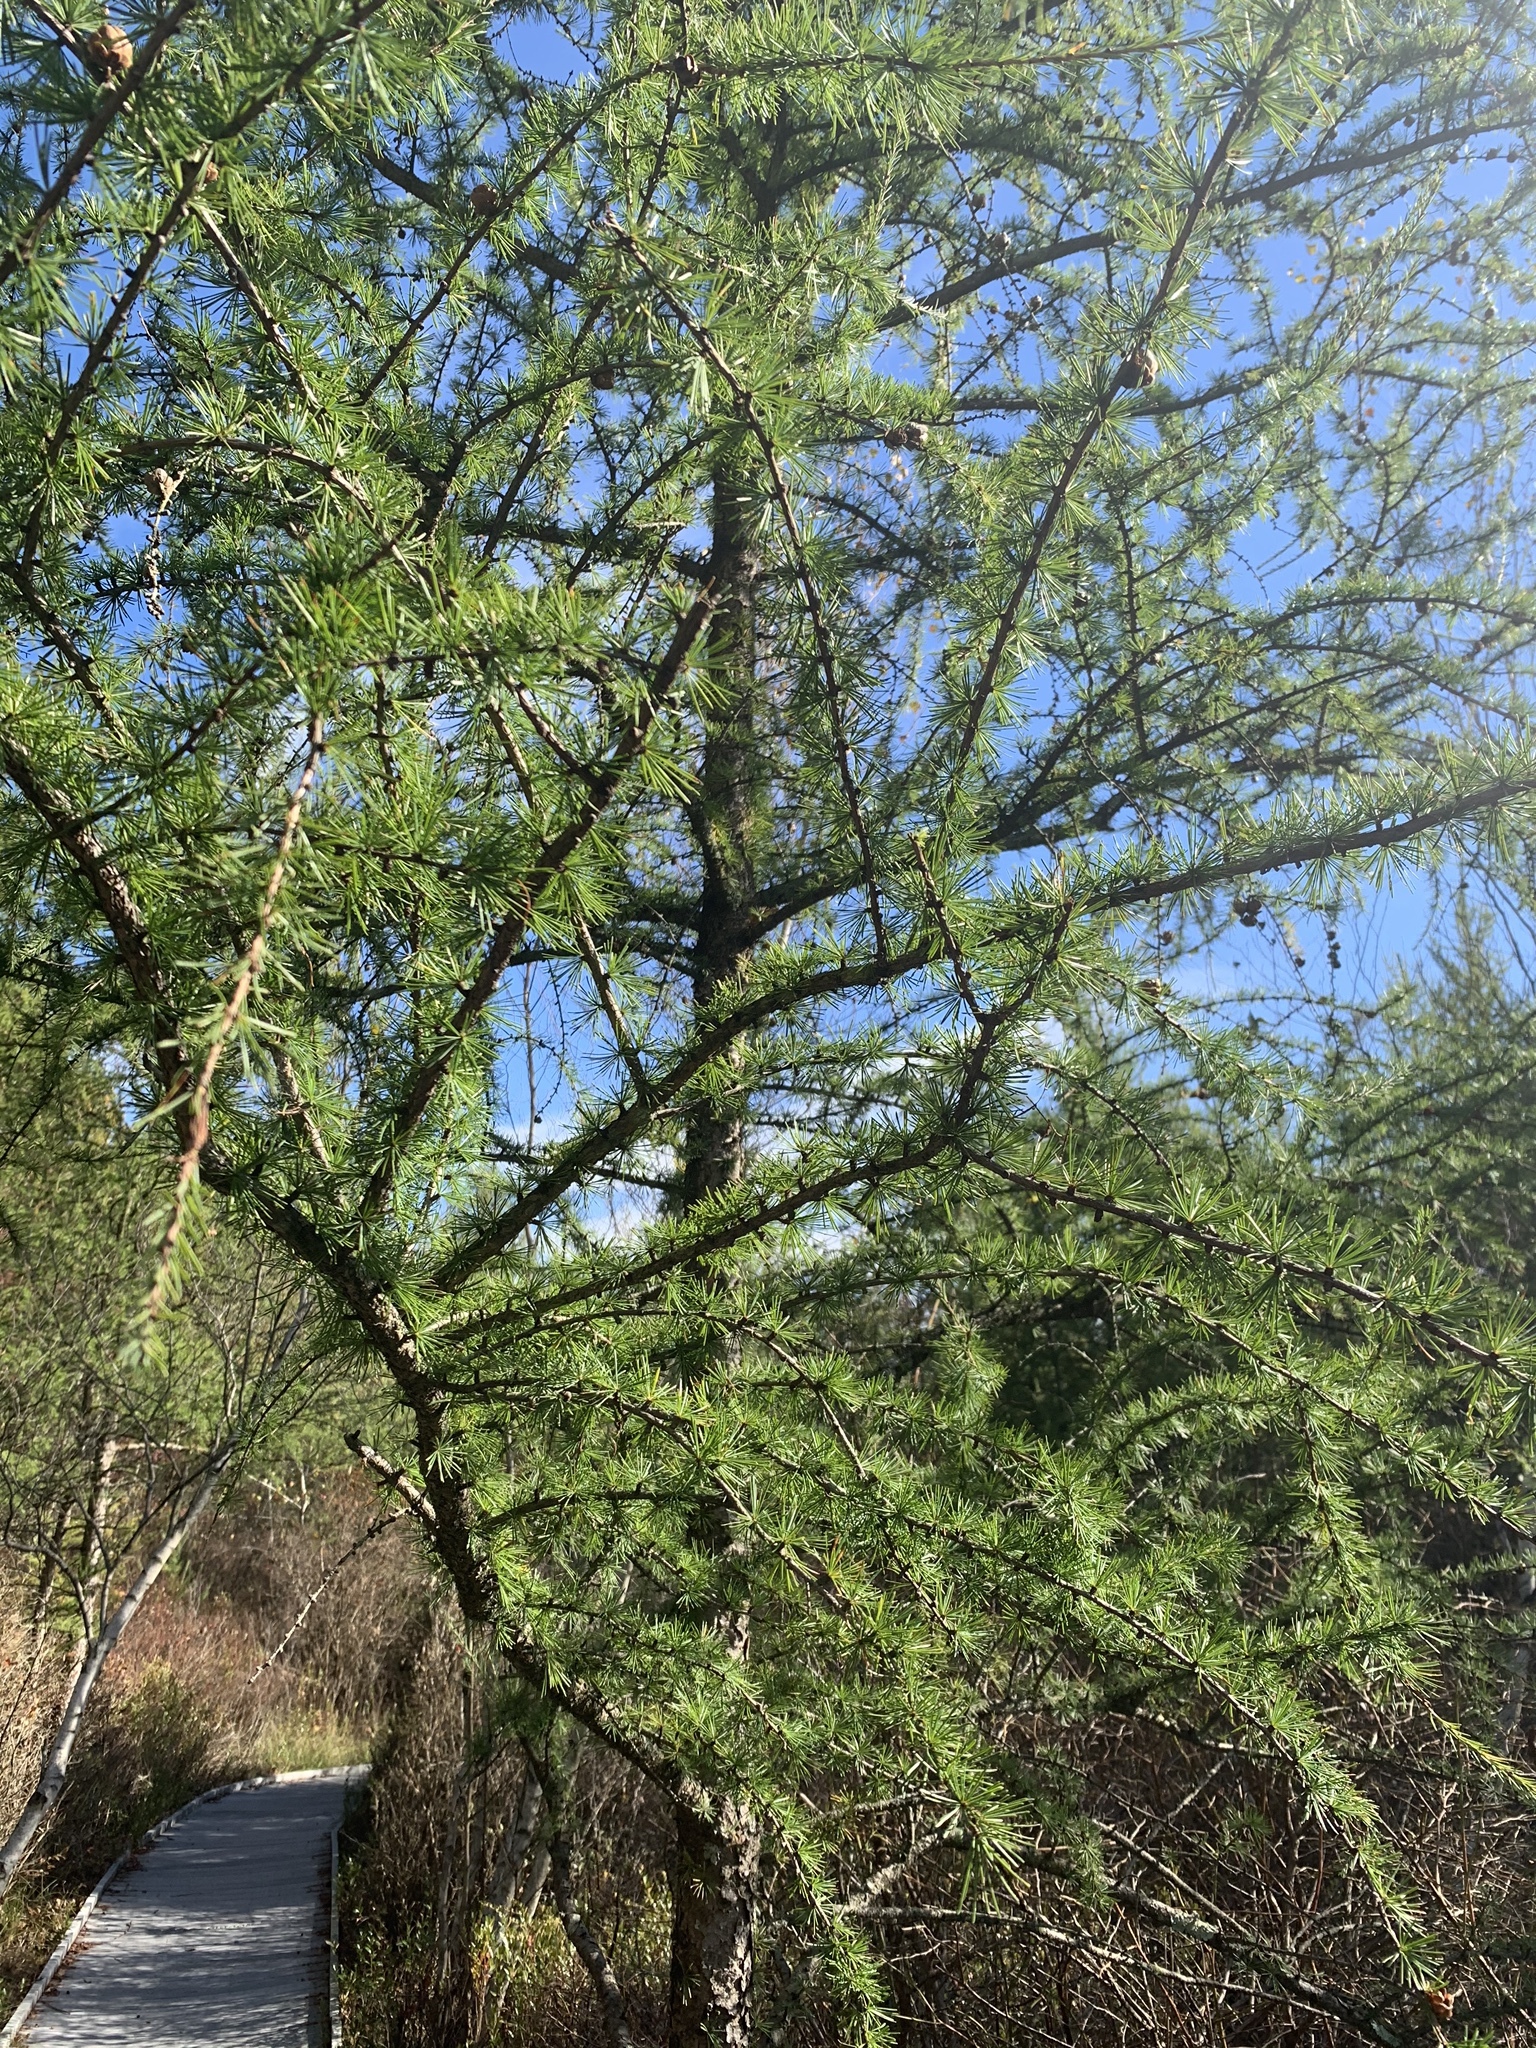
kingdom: Plantae
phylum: Tracheophyta
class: Pinopsida
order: Pinales
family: Pinaceae
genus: Larix
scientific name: Larix laricina
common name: American larch
